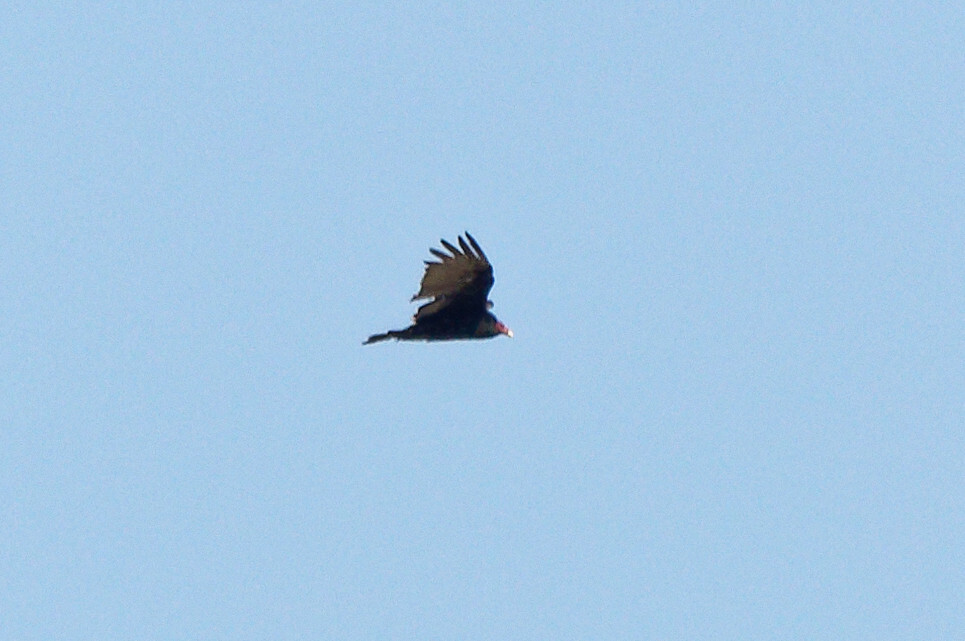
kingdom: Animalia
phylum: Chordata
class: Aves
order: Accipitriformes
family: Cathartidae
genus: Cathartes
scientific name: Cathartes aura
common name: Turkey vulture
